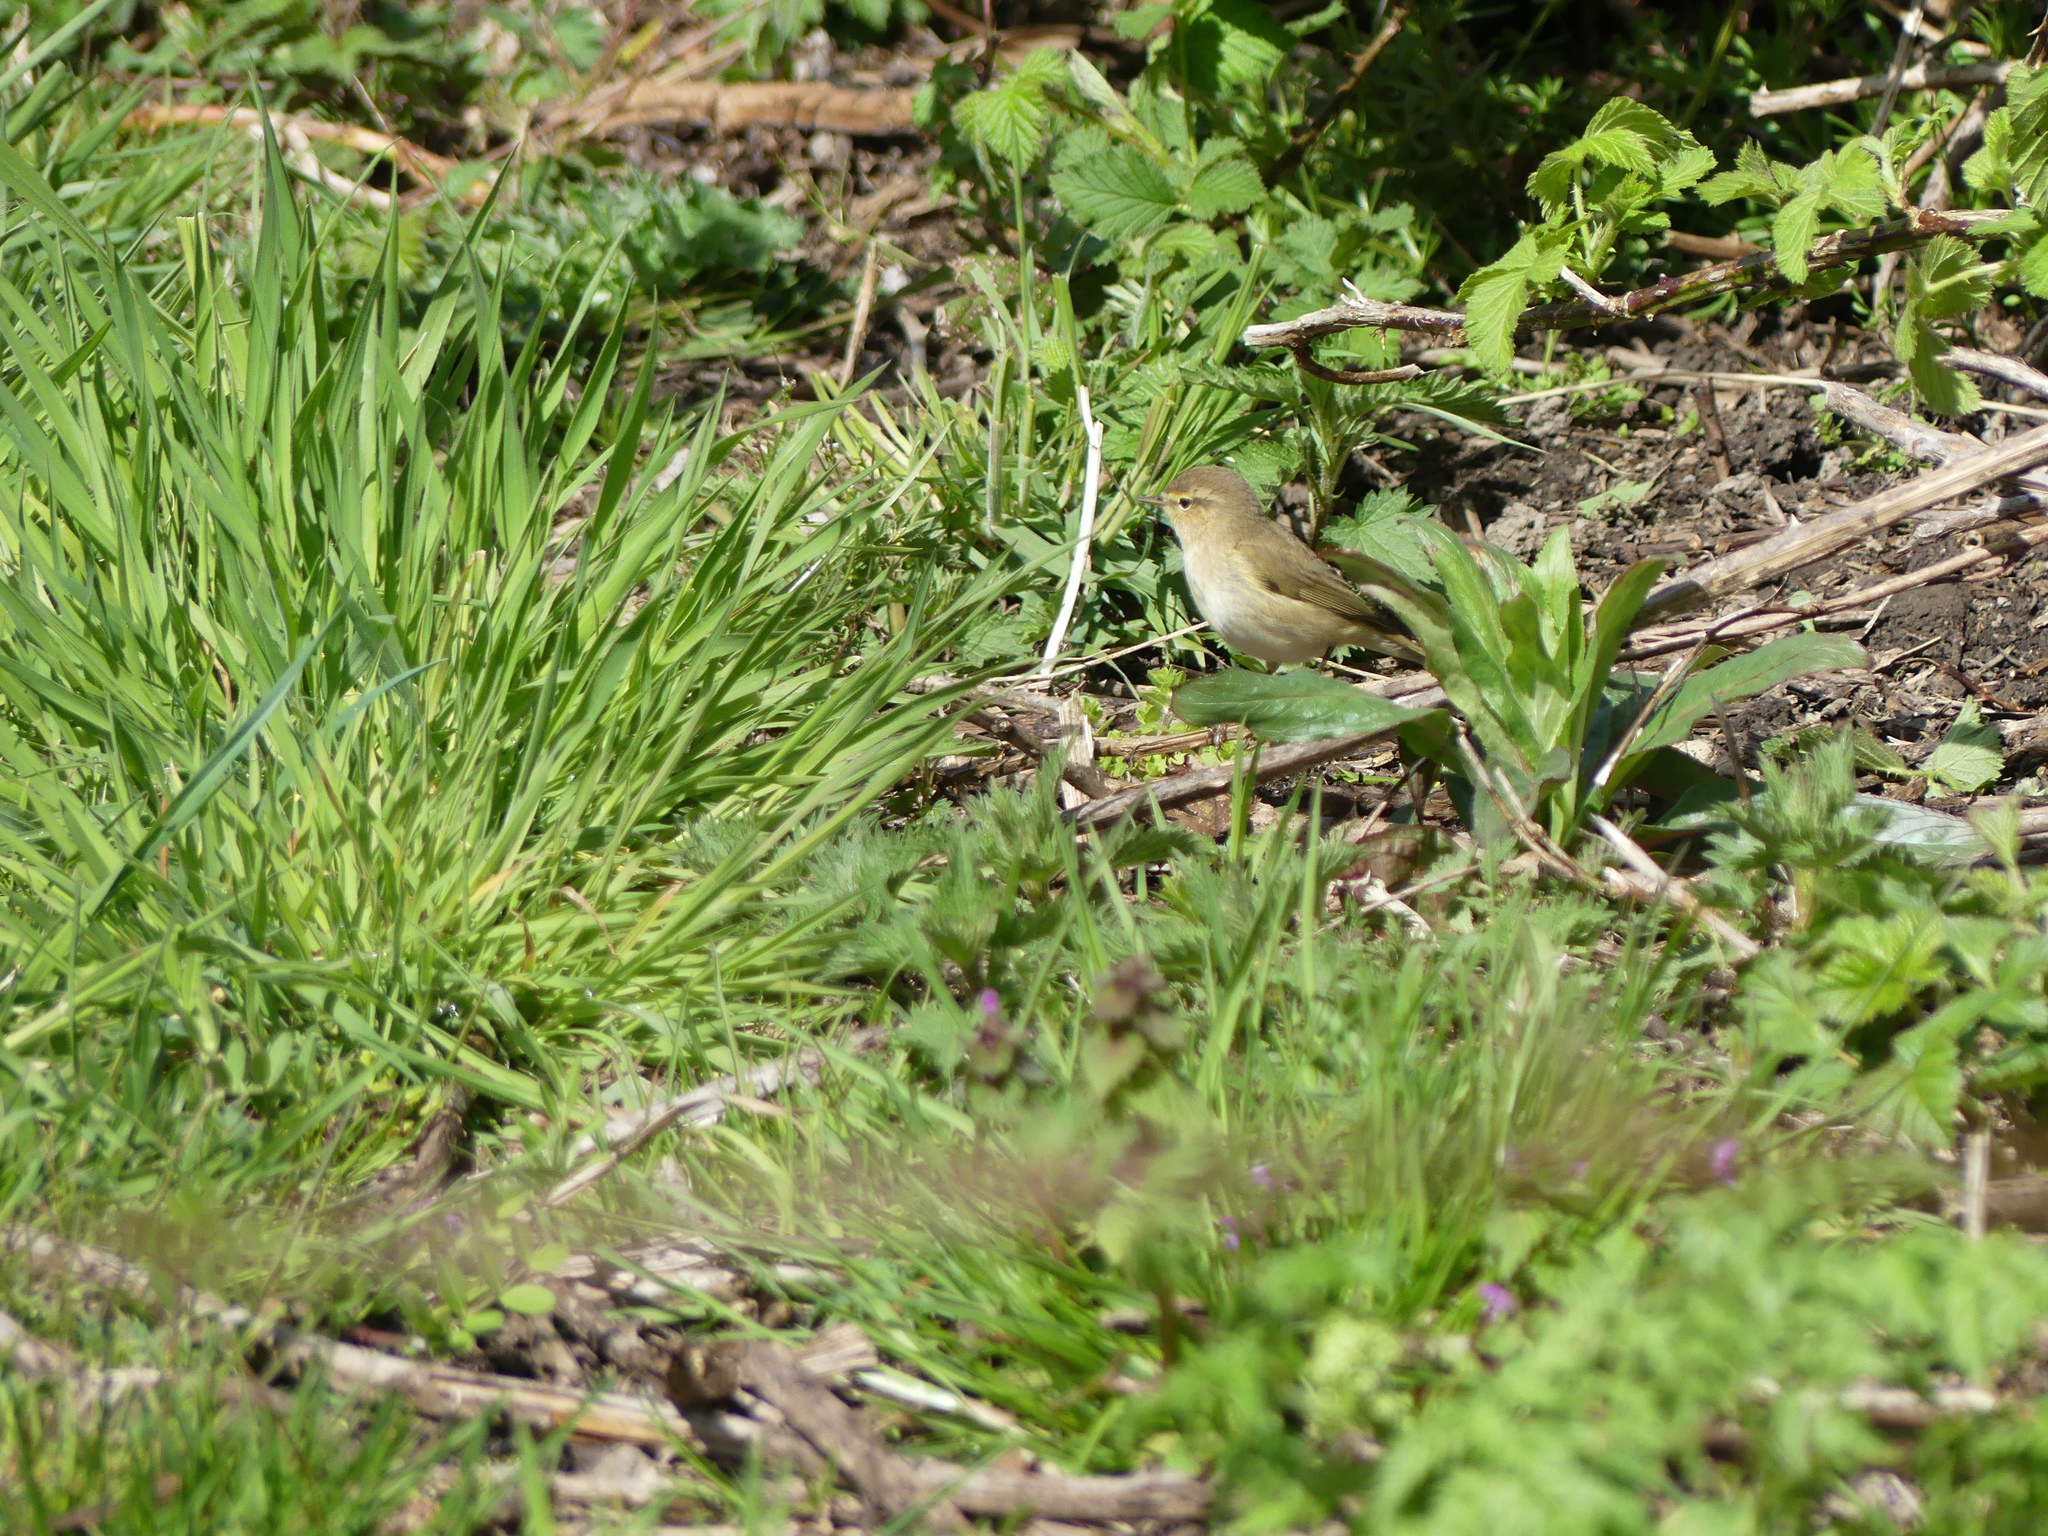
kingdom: Animalia
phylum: Chordata
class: Aves
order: Passeriformes
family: Phylloscopidae
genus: Phylloscopus
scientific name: Phylloscopus trochilus
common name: Willow warbler
